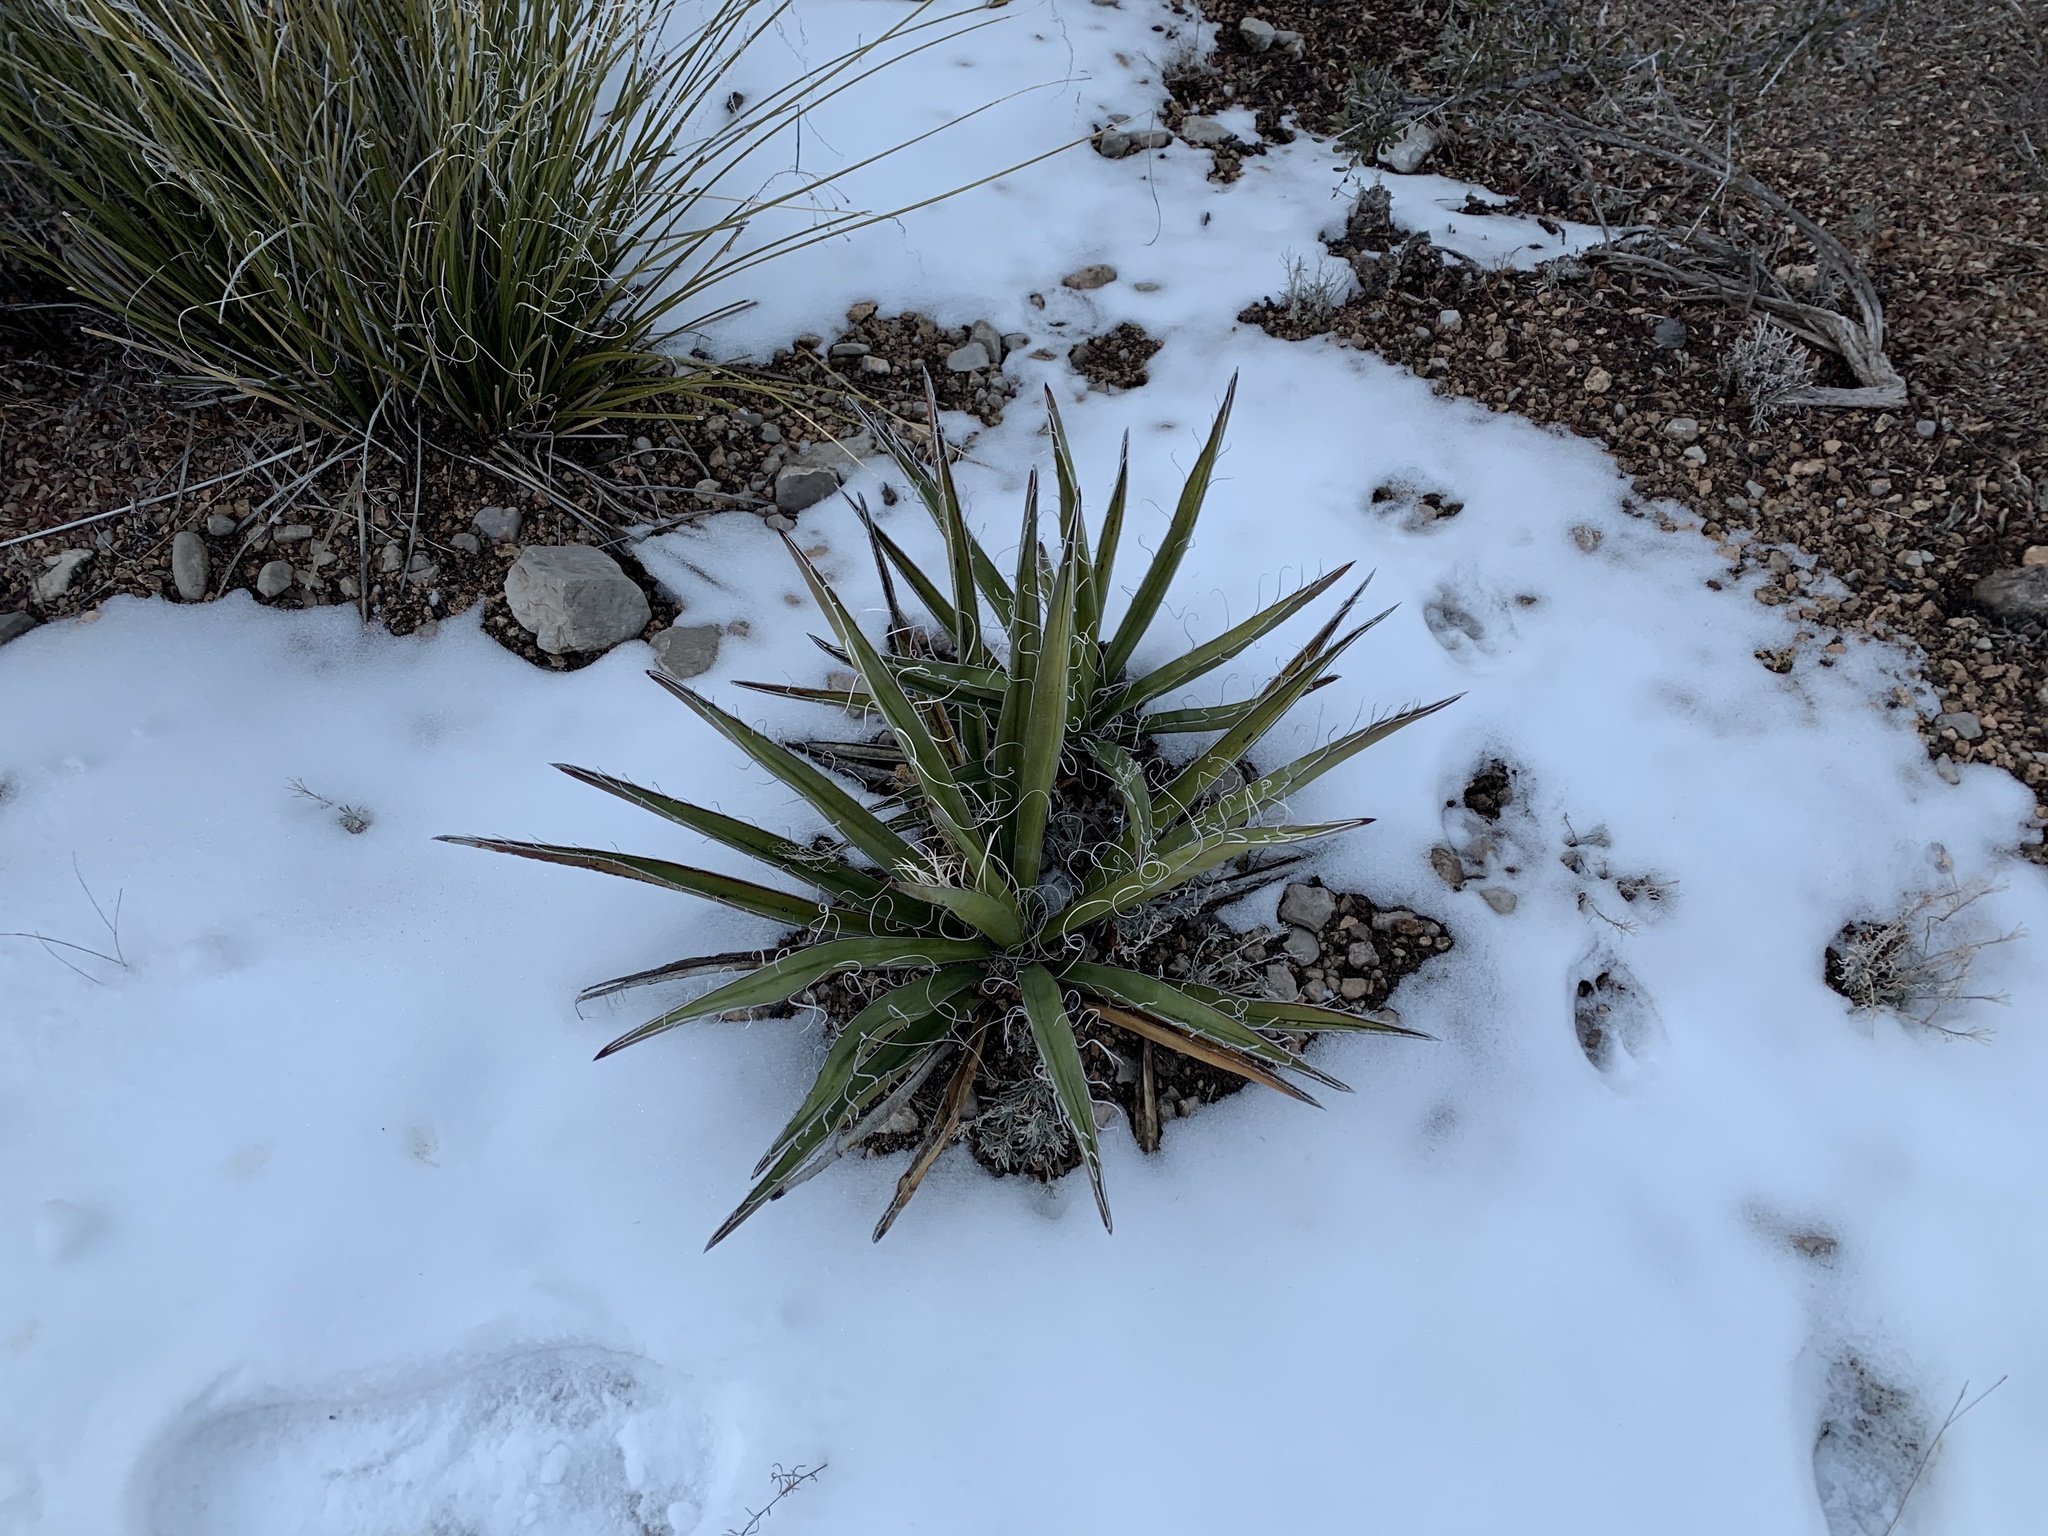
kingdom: Plantae
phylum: Tracheophyta
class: Liliopsida
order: Asparagales
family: Asparagaceae
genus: Yucca
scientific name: Yucca baccata
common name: Banana yucca
